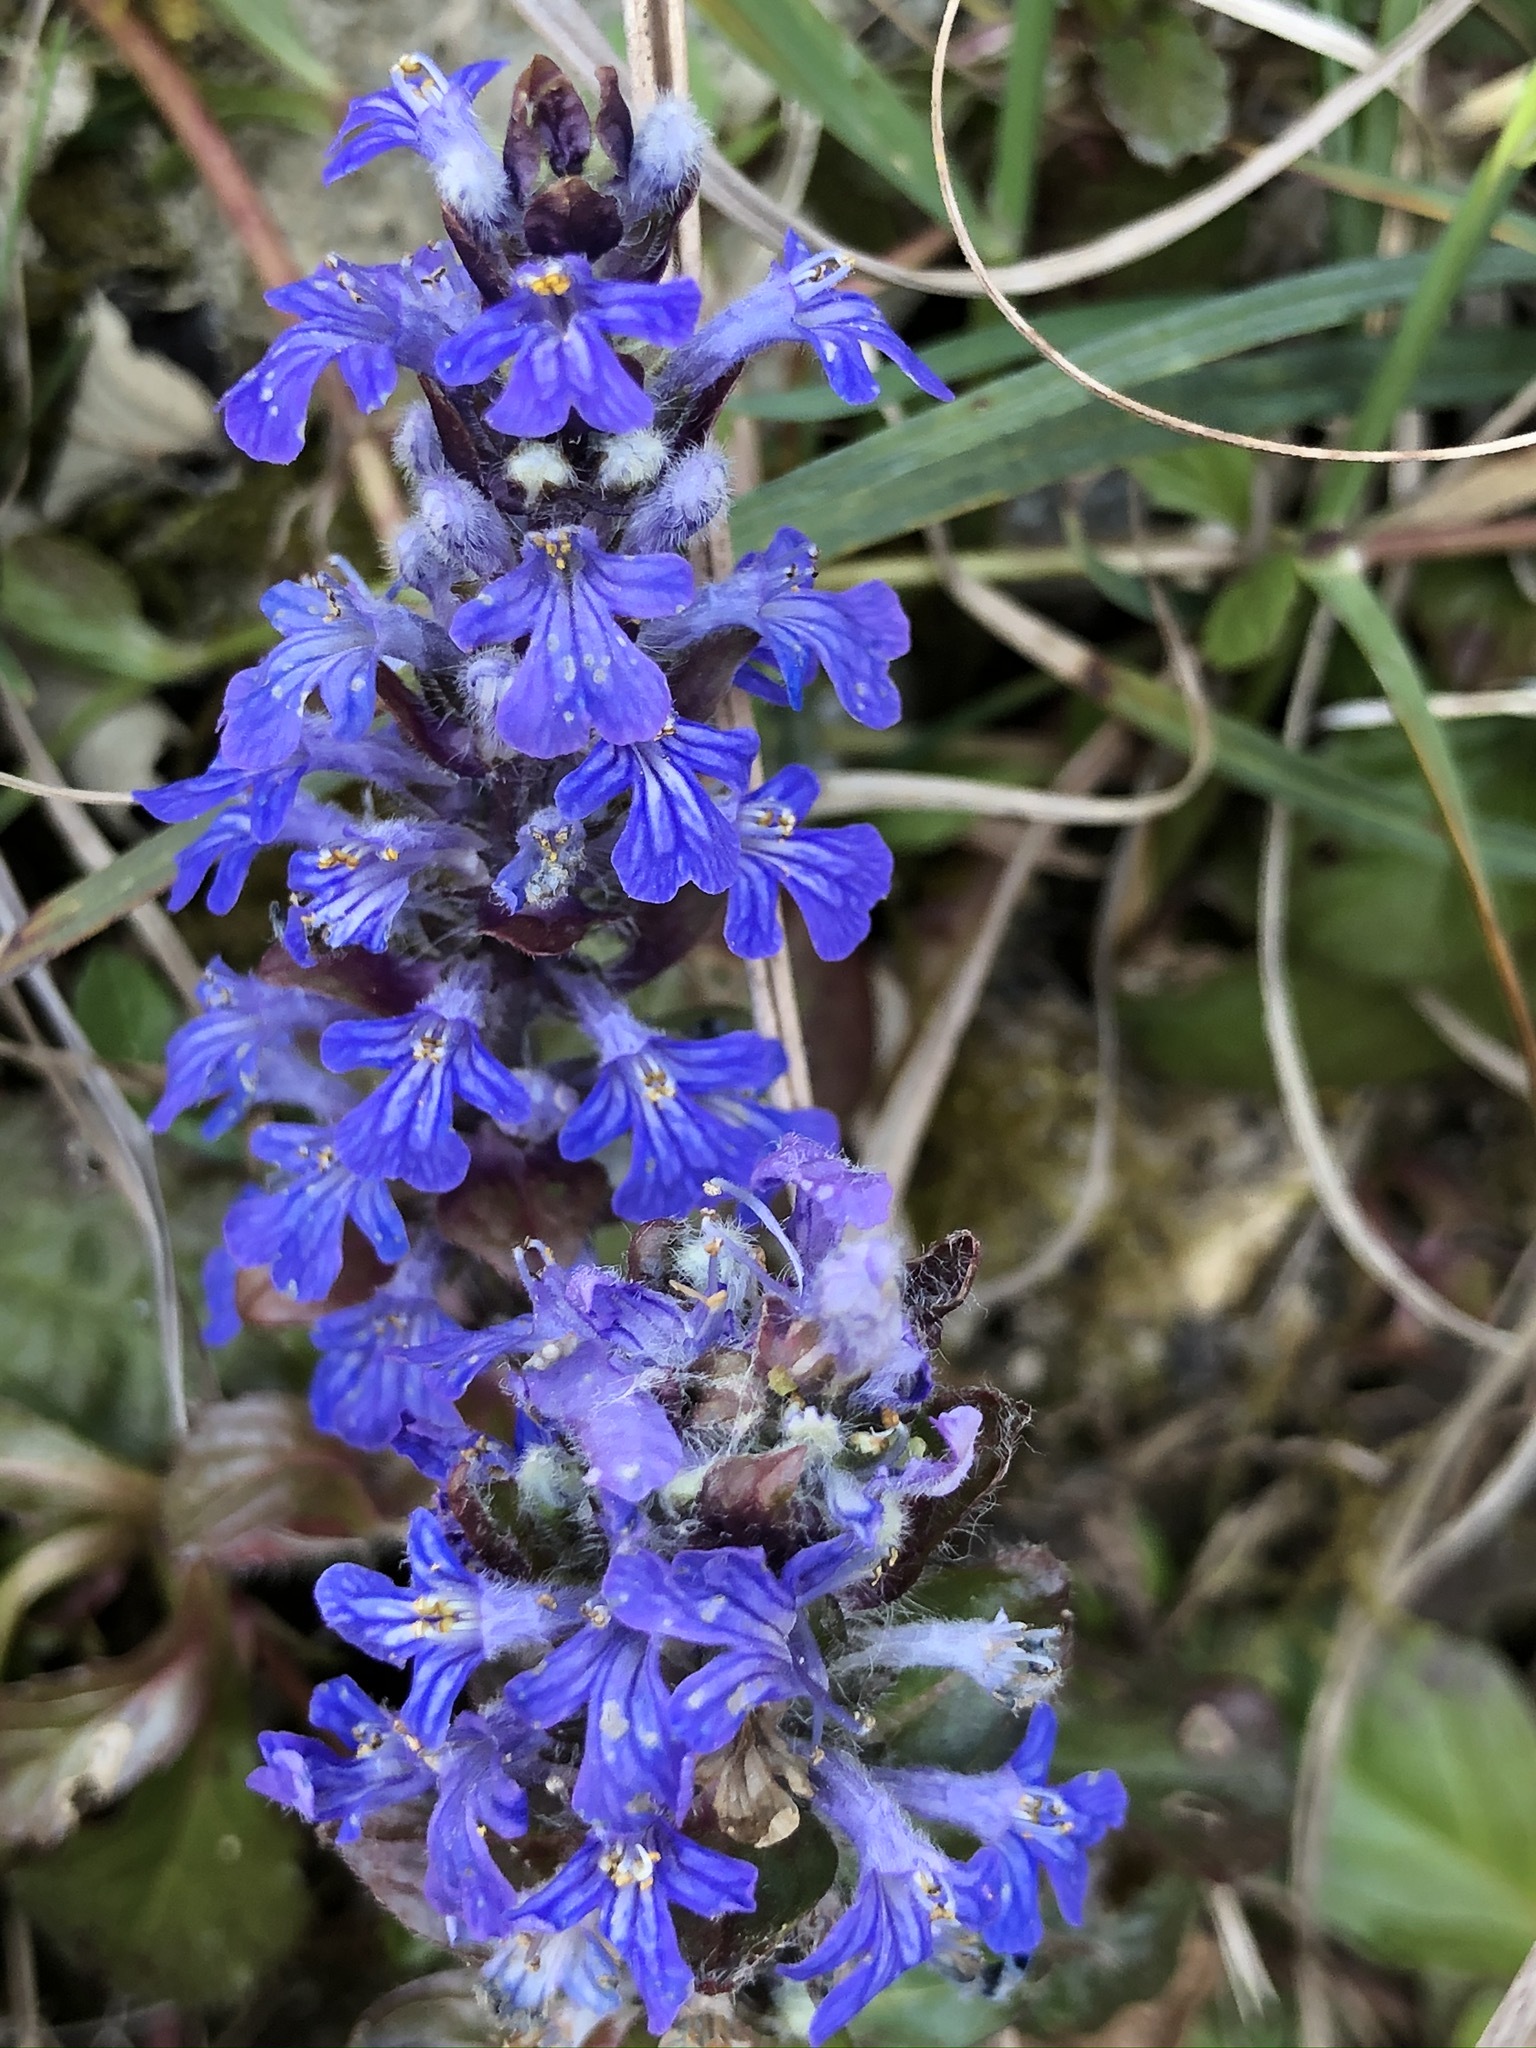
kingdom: Plantae
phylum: Tracheophyta
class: Magnoliopsida
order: Lamiales
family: Lamiaceae
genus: Ajuga
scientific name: Ajuga reptans
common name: Bugle
